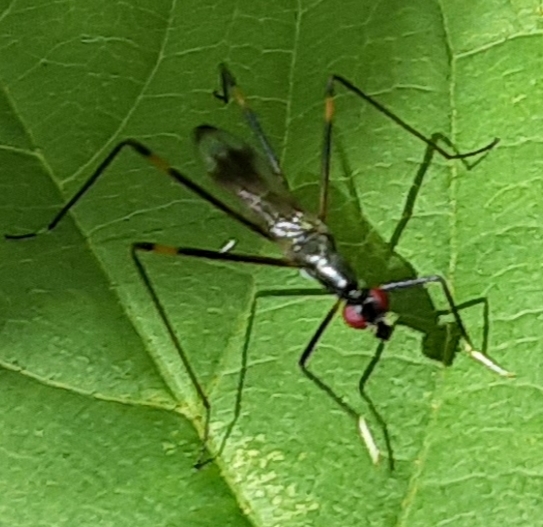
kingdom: Animalia
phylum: Arthropoda
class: Insecta
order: Diptera
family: Micropezidae
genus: Rainieria
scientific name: Rainieria antennaepes
